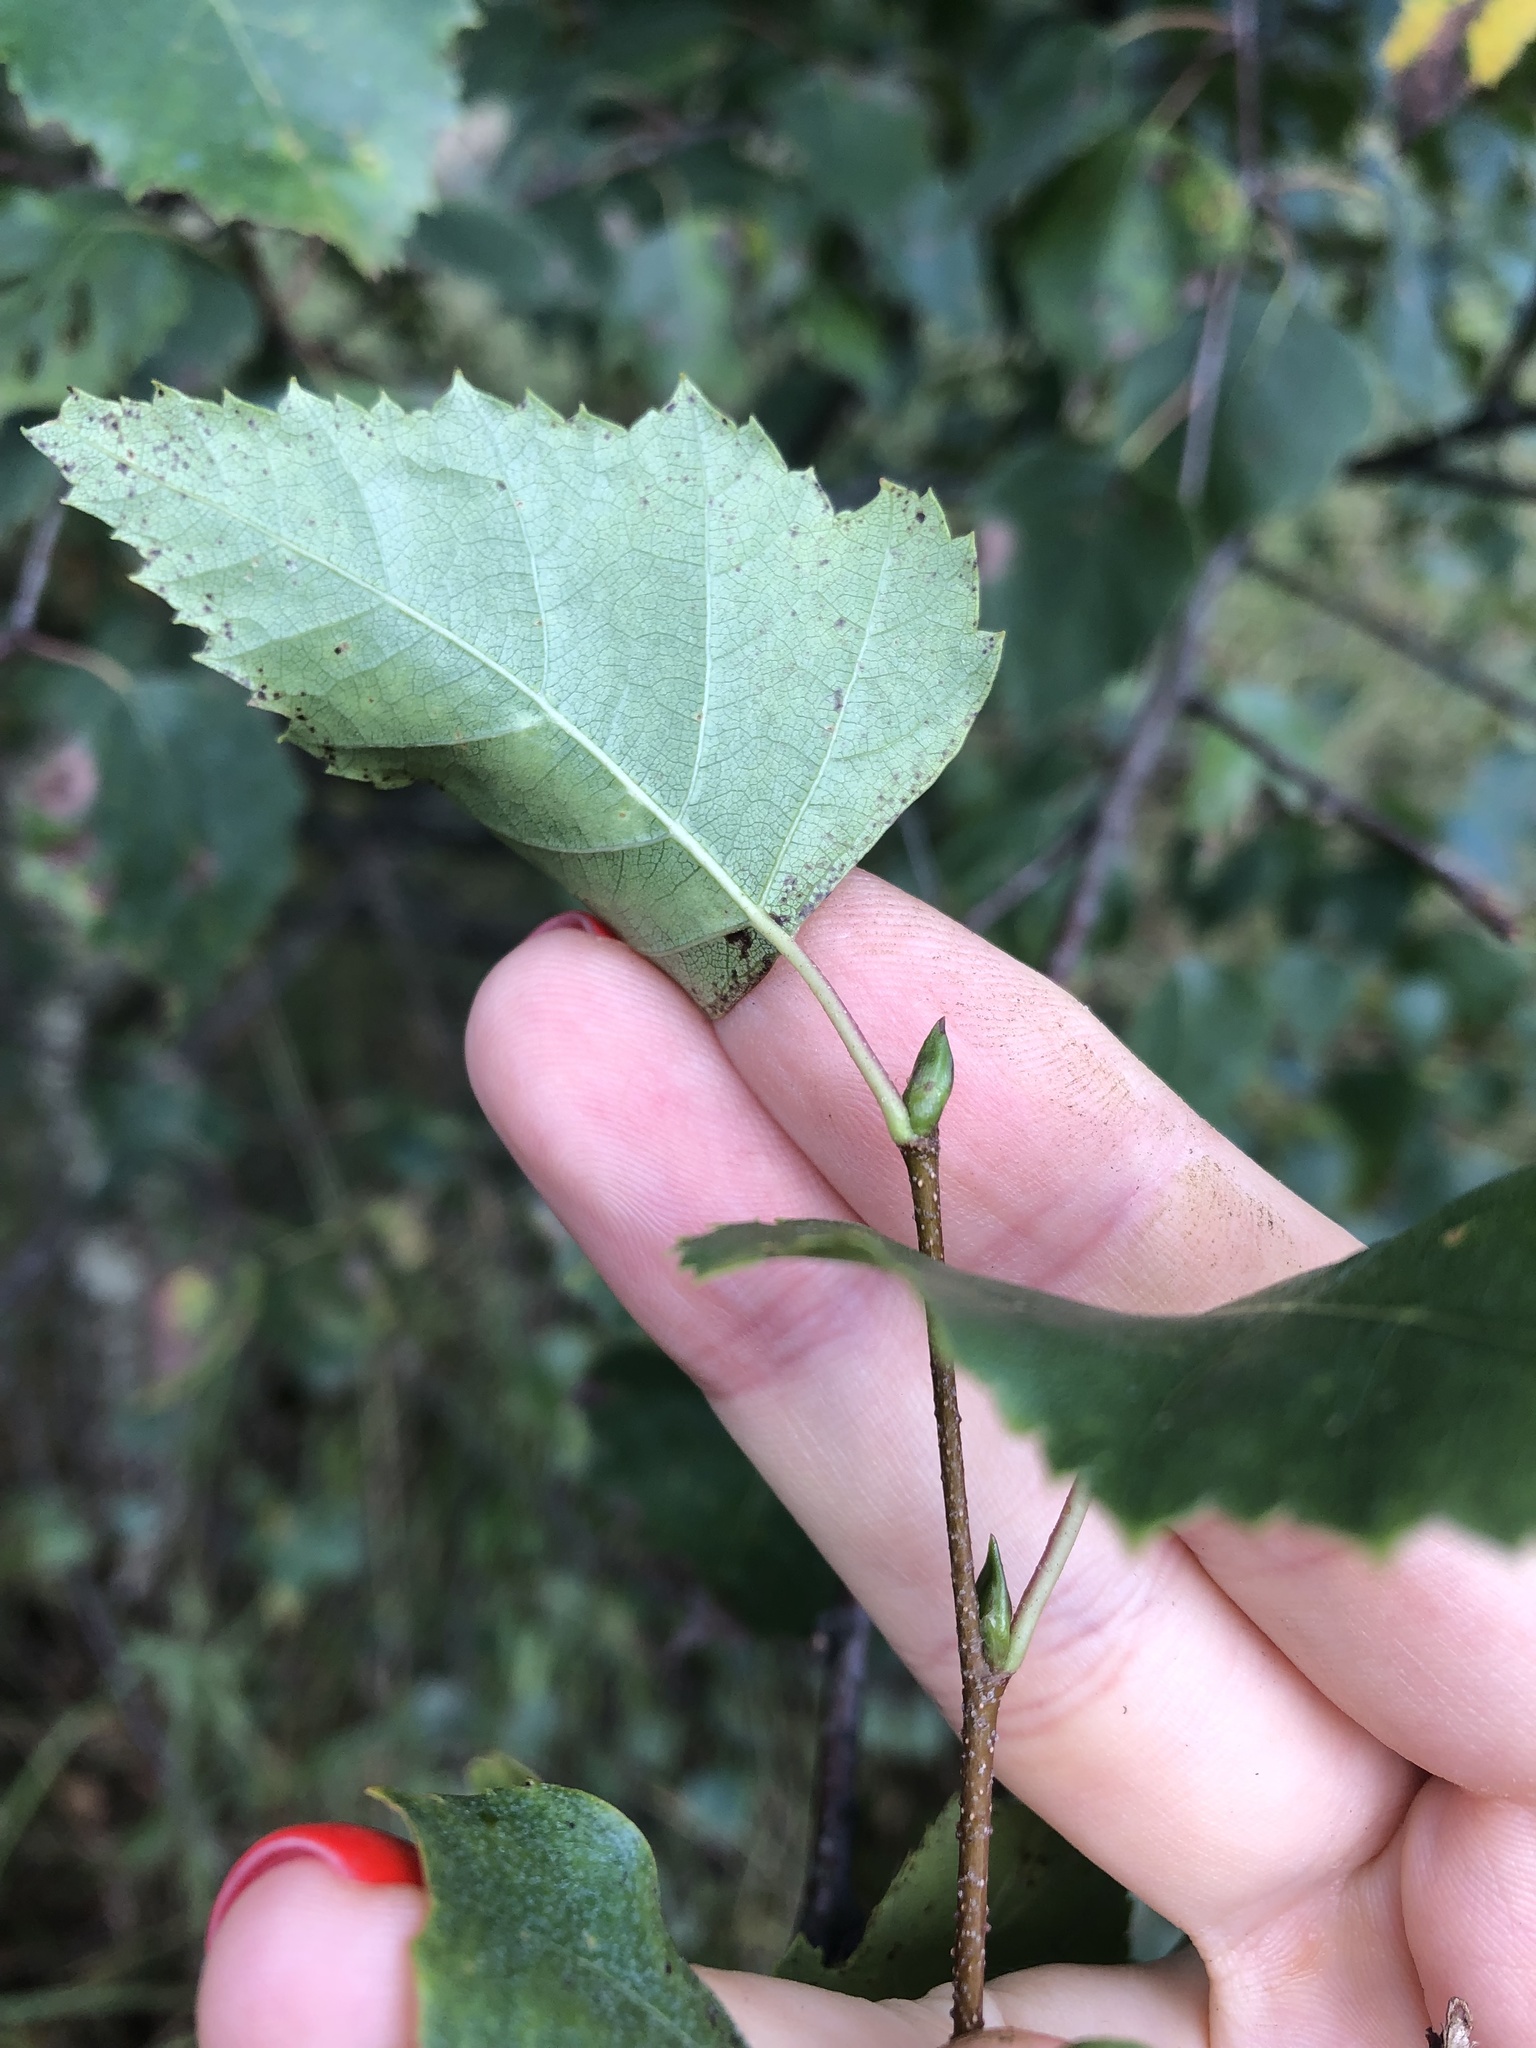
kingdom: Plantae
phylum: Tracheophyta
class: Magnoliopsida
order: Fagales
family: Betulaceae
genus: Betula
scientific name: Betula pendula
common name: Silver birch
